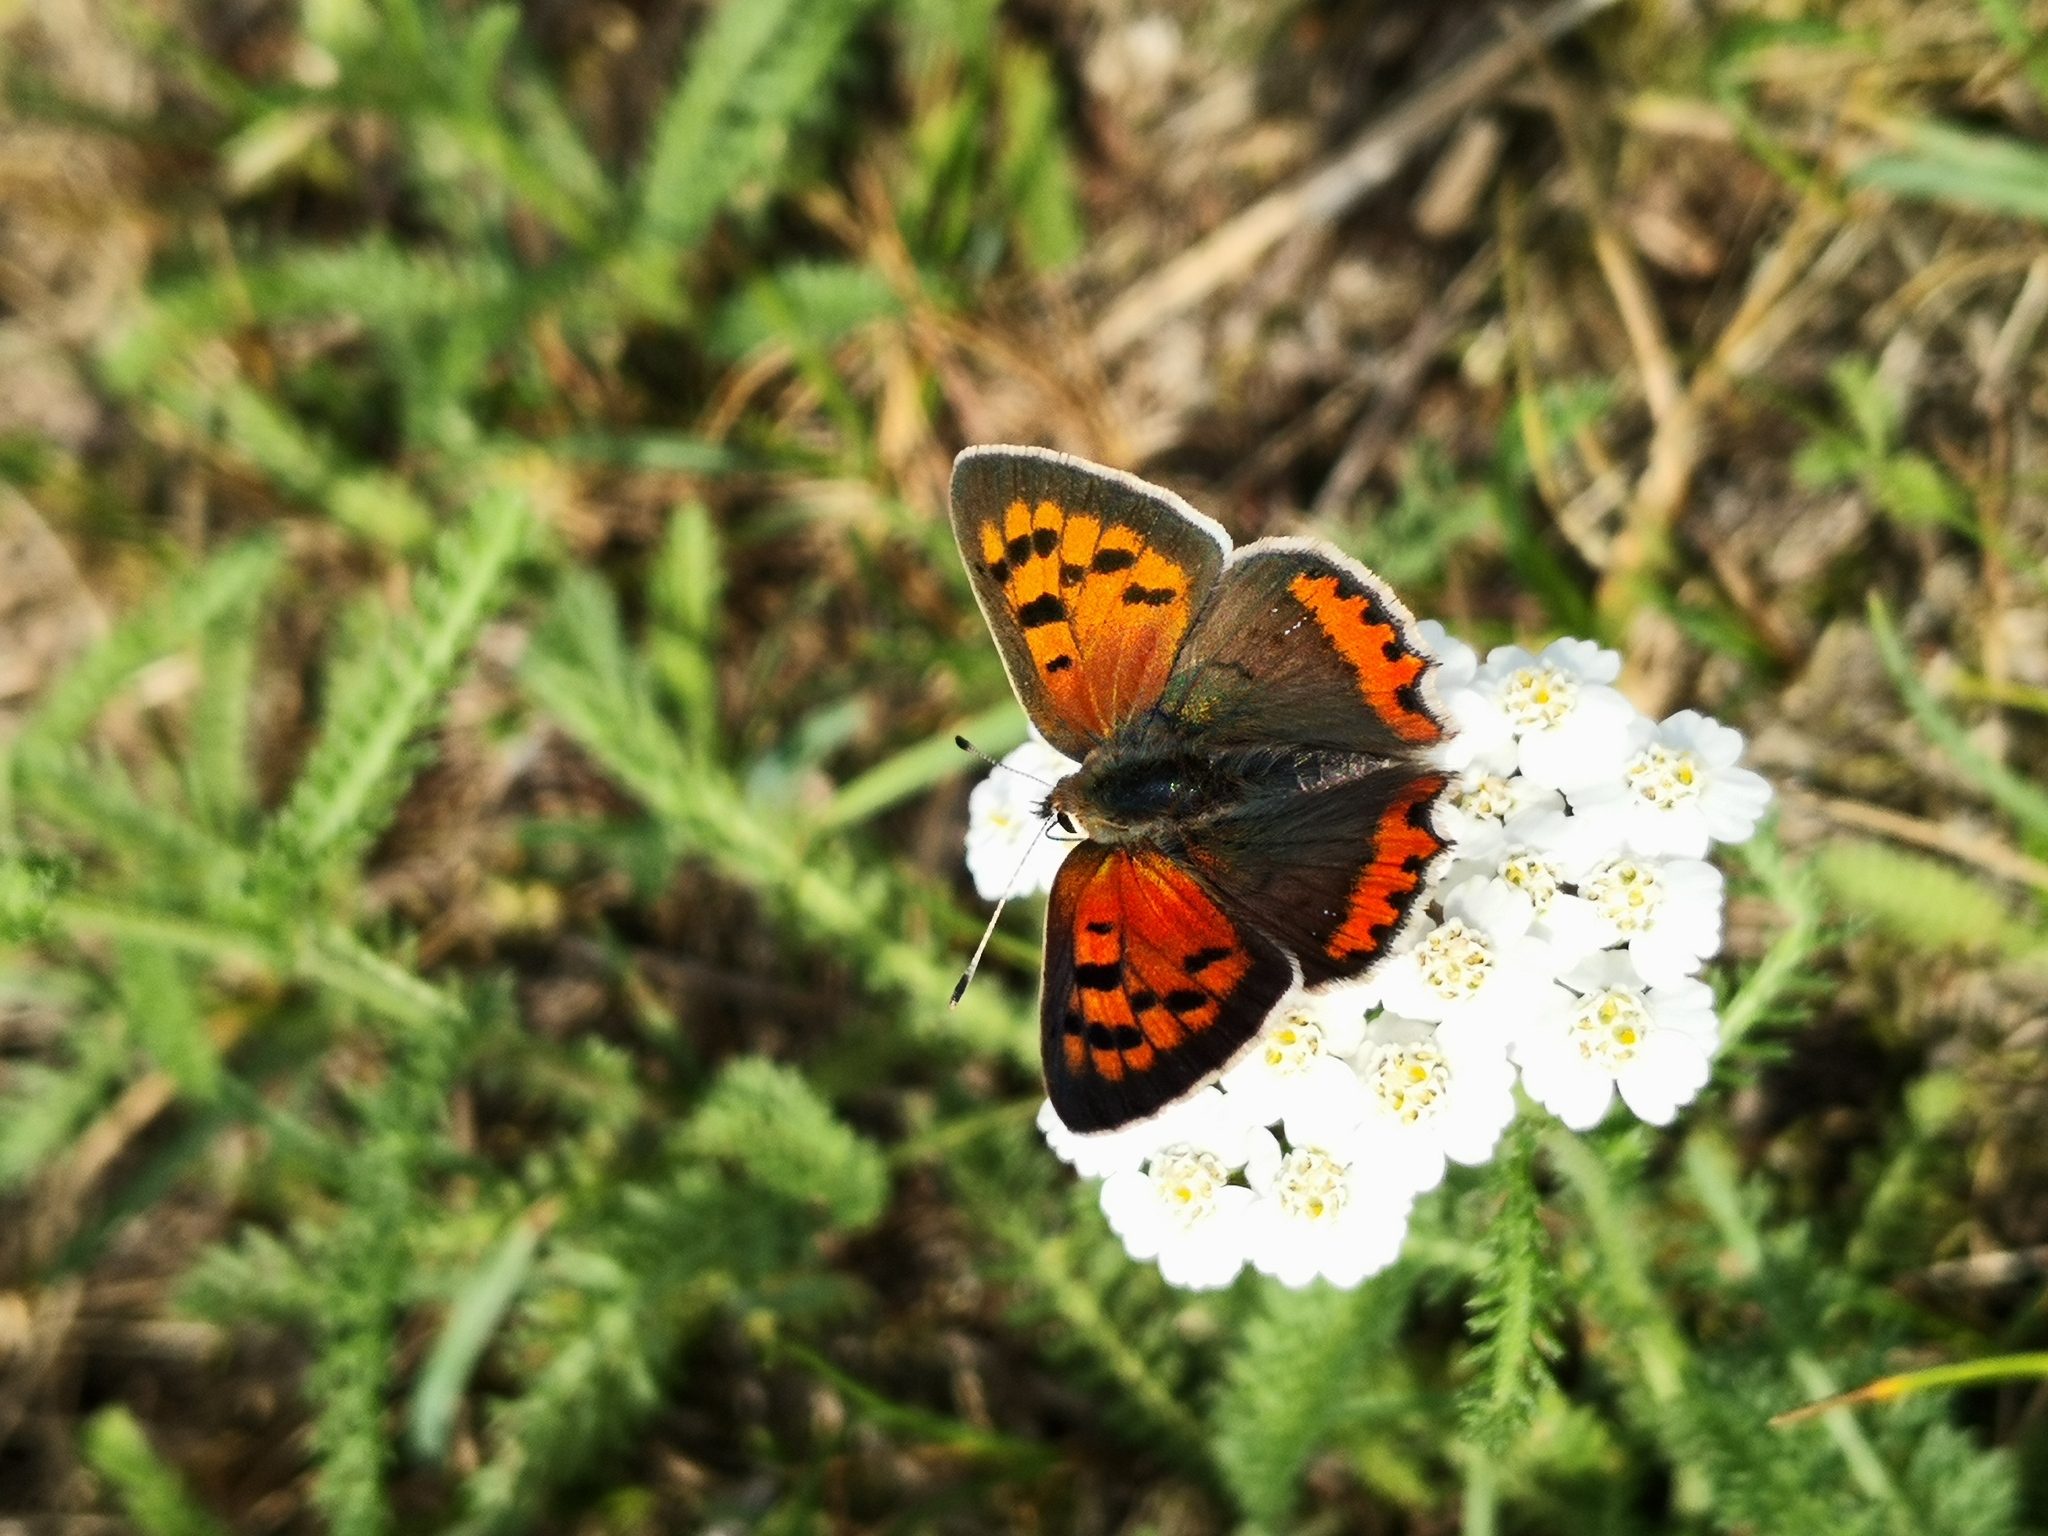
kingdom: Animalia
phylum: Arthropoda
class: Insecta
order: Lepidoptera
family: Lycaenidae
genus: Lycaena
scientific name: Lycaena phlaeas
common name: Small copper
